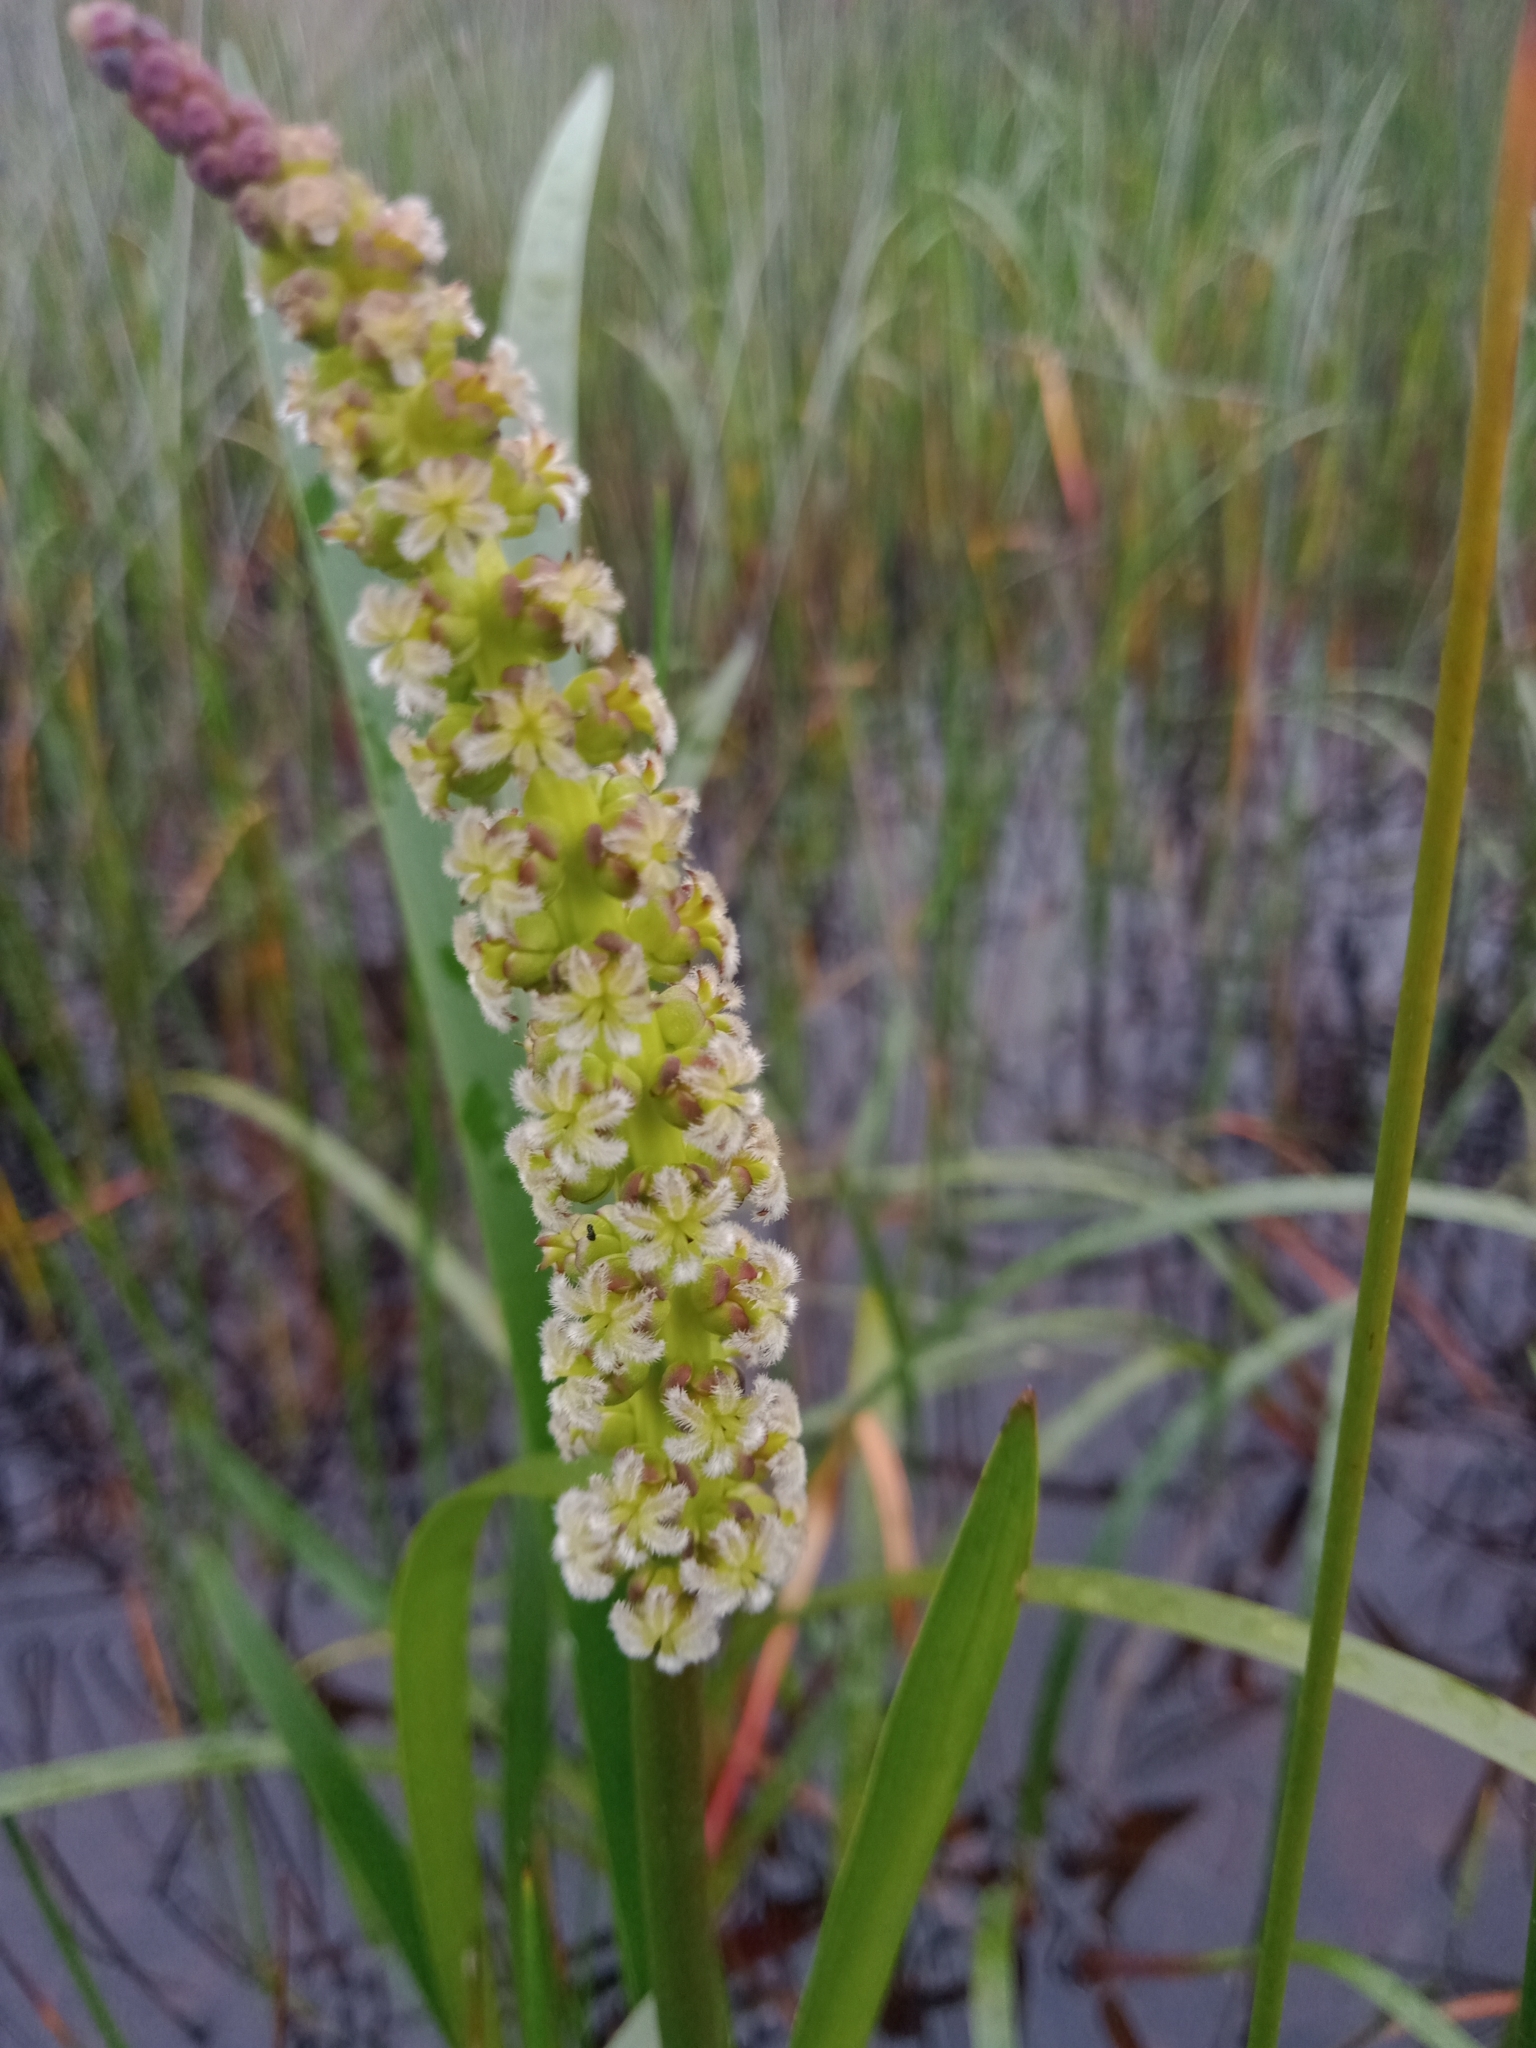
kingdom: Plantae
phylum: Tracheophyta
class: Liliopsida
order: Alismatales
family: Juncaginaceae
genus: Cycnogeton
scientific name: Cycnogeton procerum
